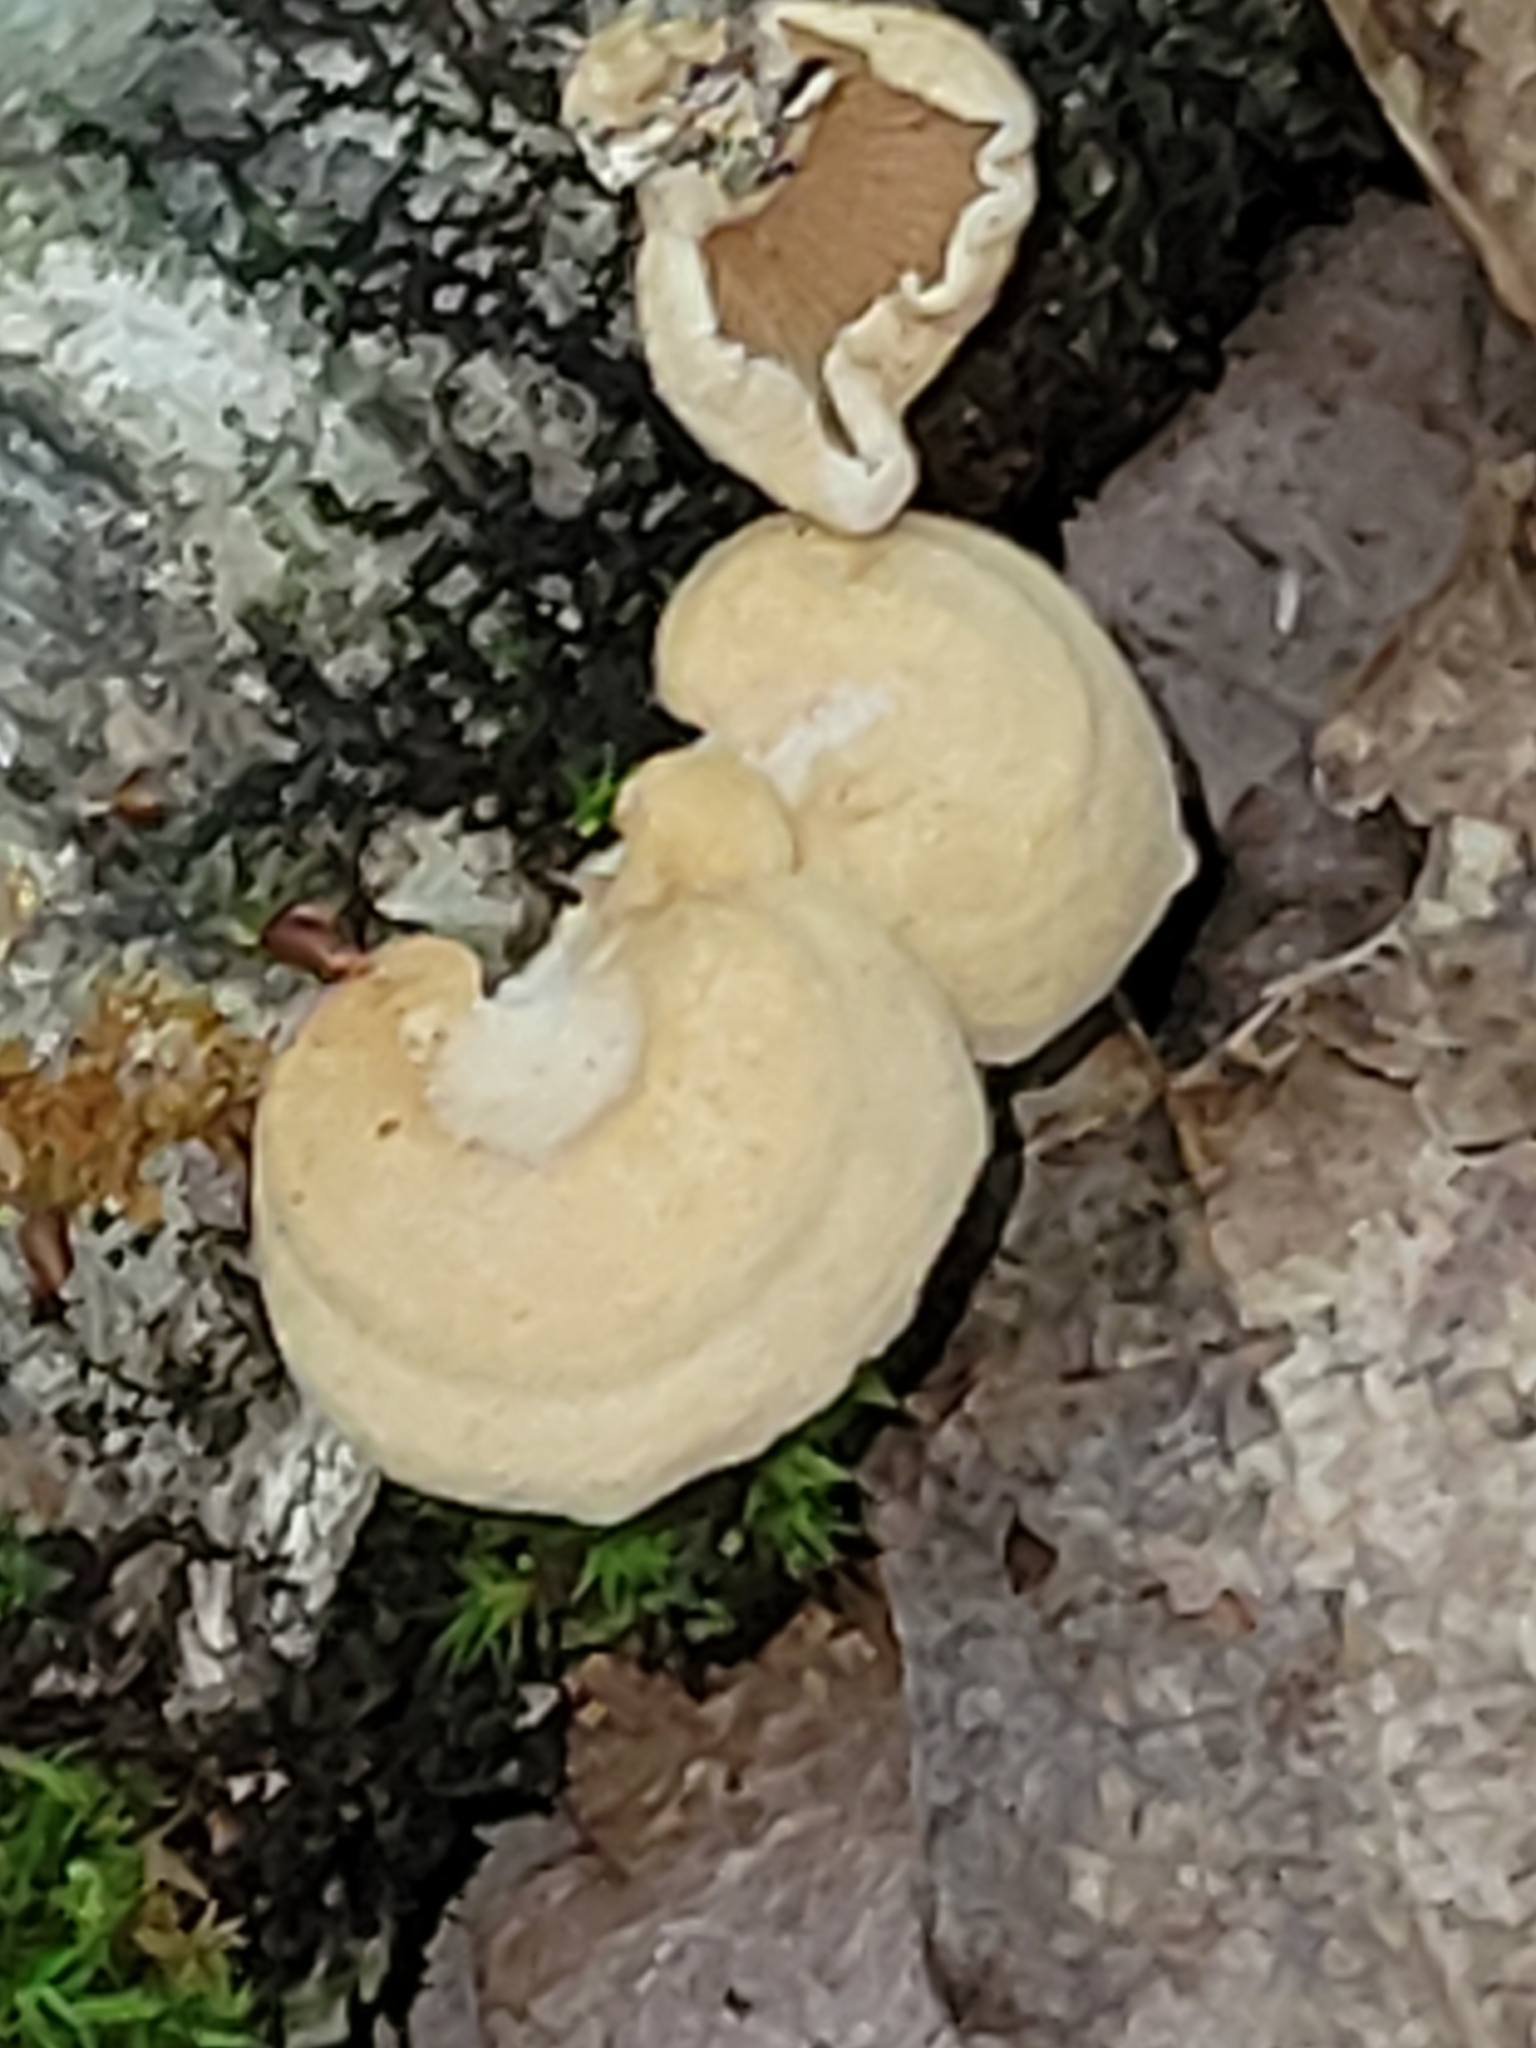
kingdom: Fungi
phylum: Basidiomycota
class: Agaricomycetes
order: Agaricales
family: Mycenaceae
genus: Panellus
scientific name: Panellus stipticus
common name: Bitter oysterling
